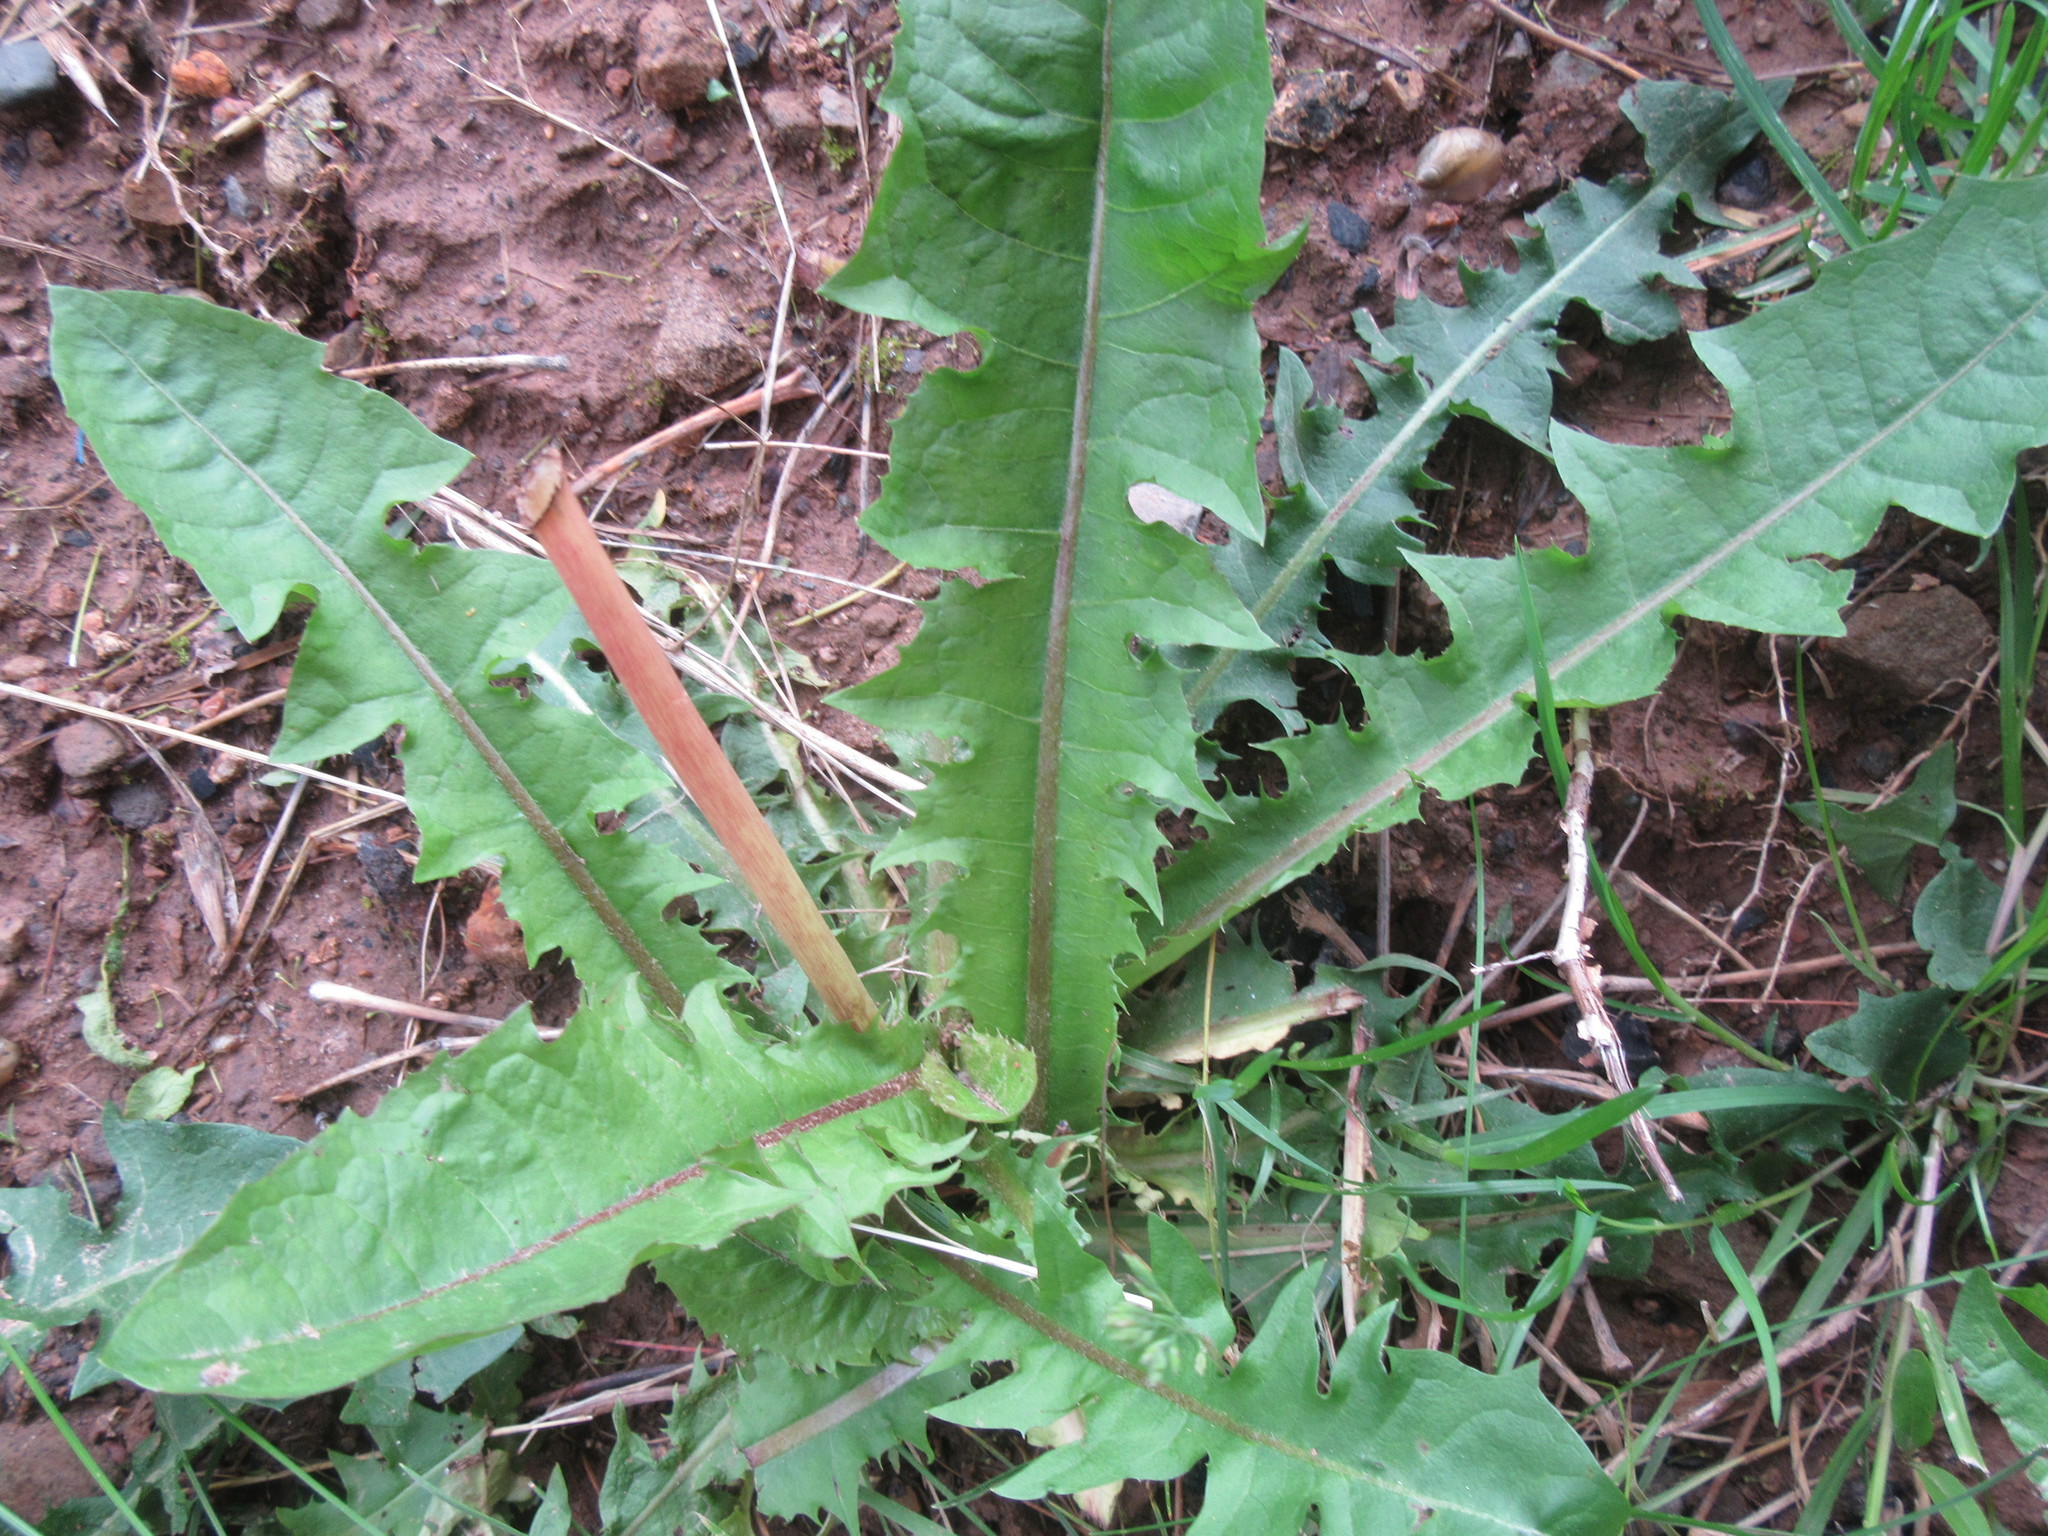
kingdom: Plantae
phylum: Tracheophyta
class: Magnoliopsida
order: Asterales
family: Asteraceae
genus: Taraxacum
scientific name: Taraxacum officinale
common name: Common dandelion
